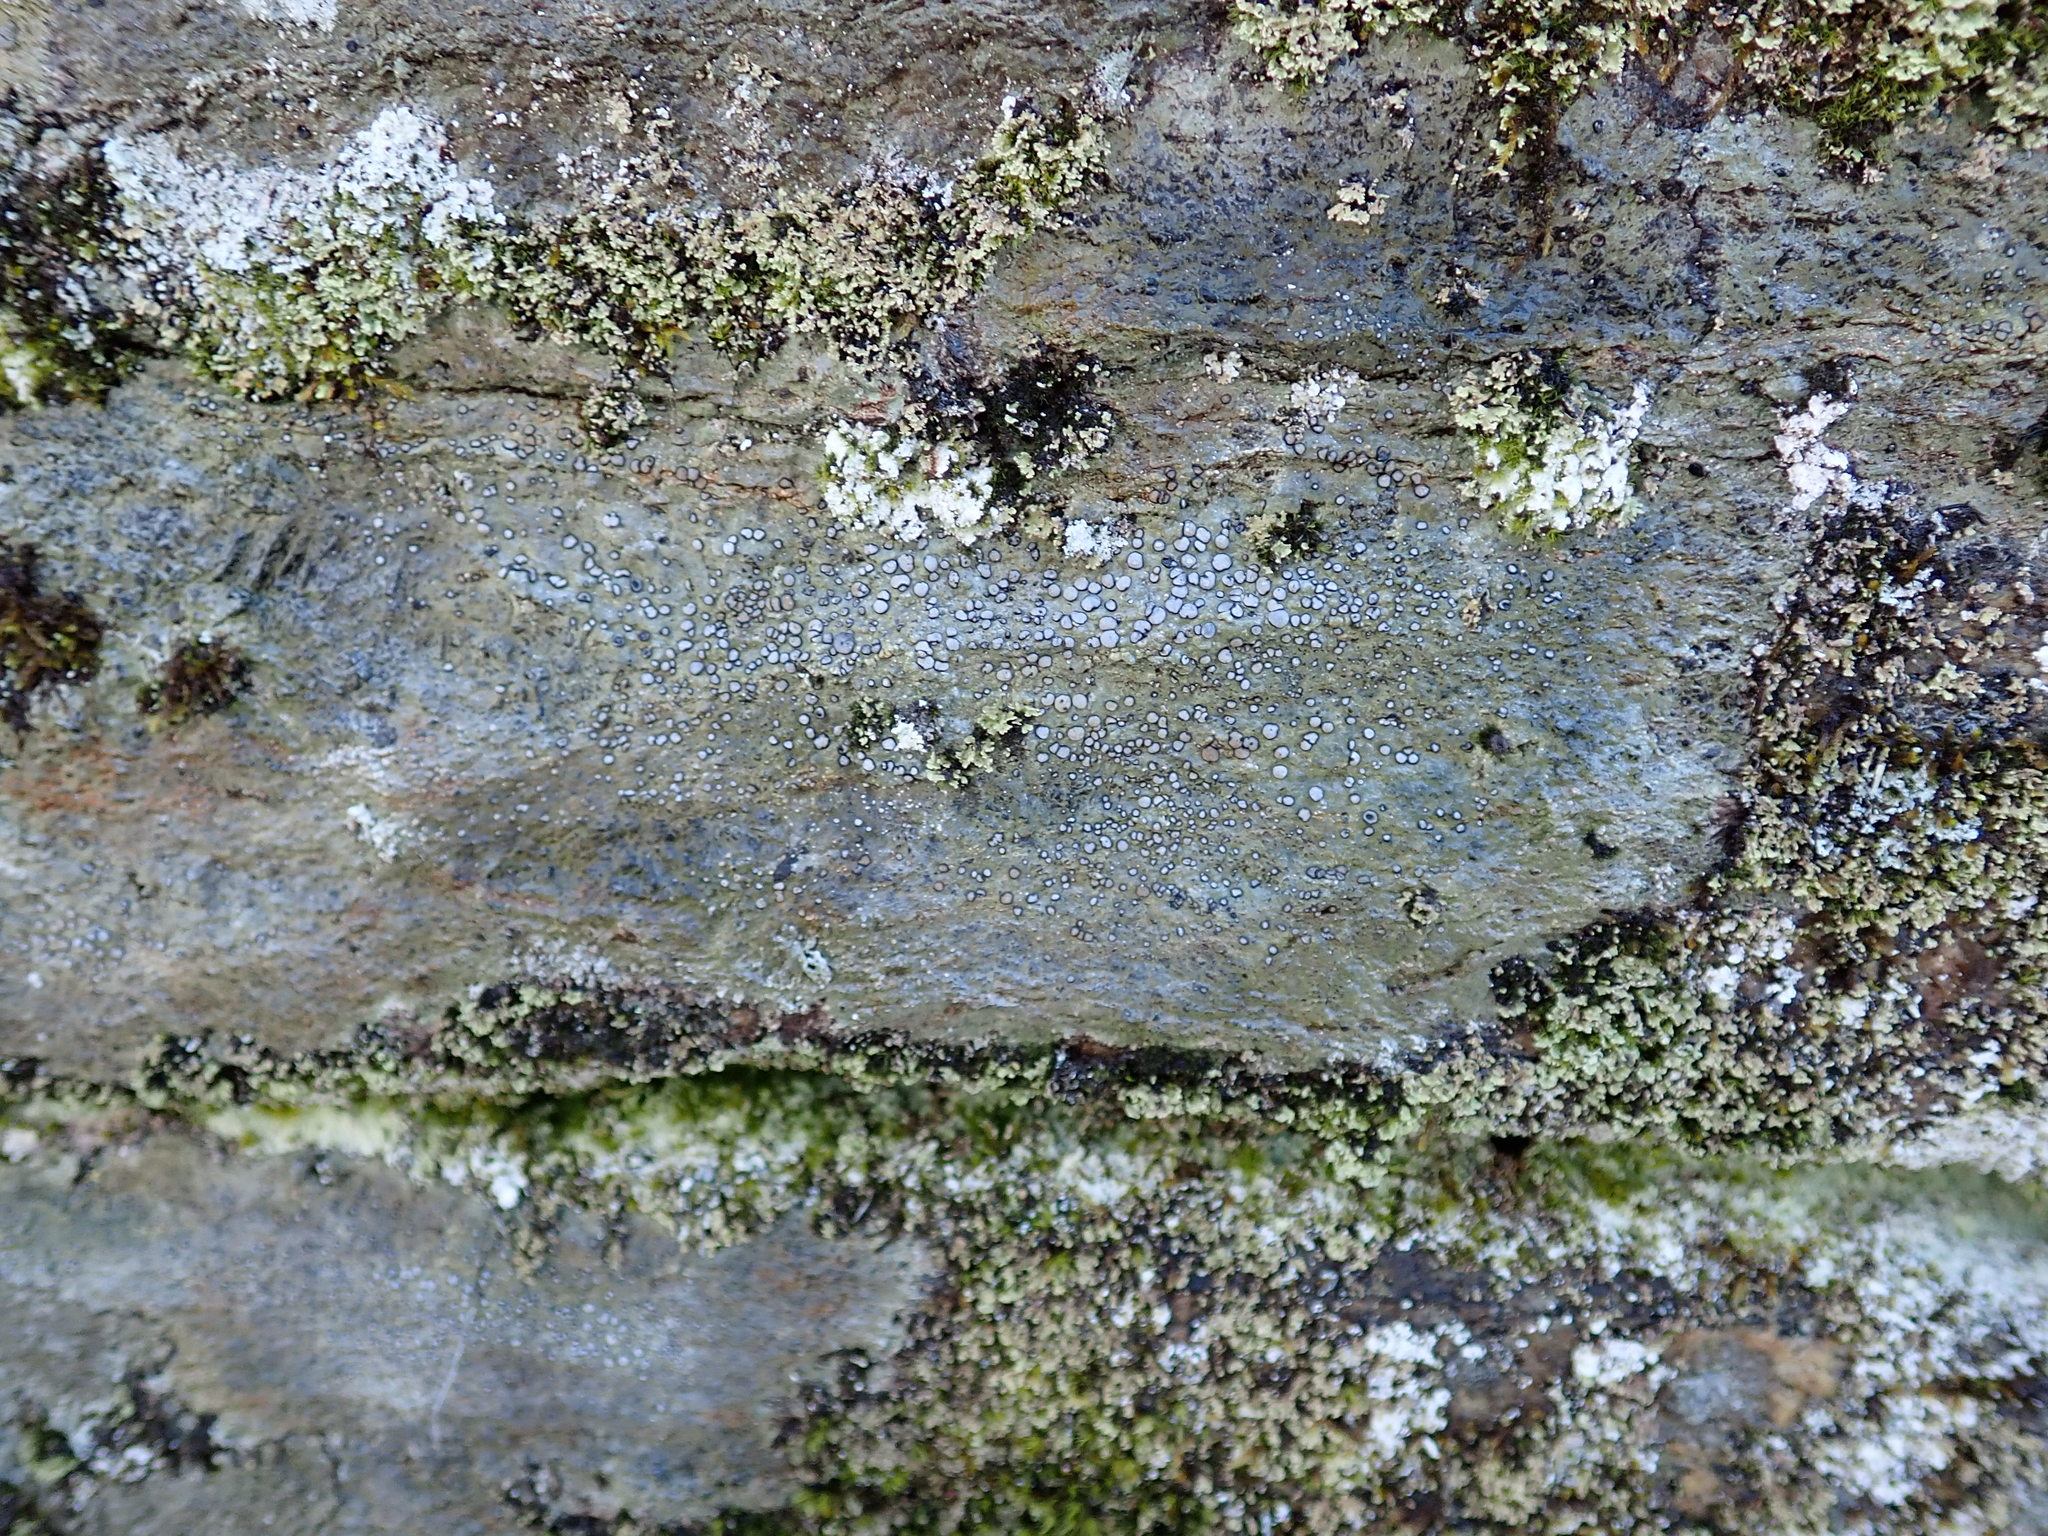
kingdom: Fungi
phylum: Ascomycota
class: Lecanoromycetes
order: Lecideales
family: Lecideaceae
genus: Porpidia
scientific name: Porpidia albocaerulescens
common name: Smokey-eyed boulder lichen
